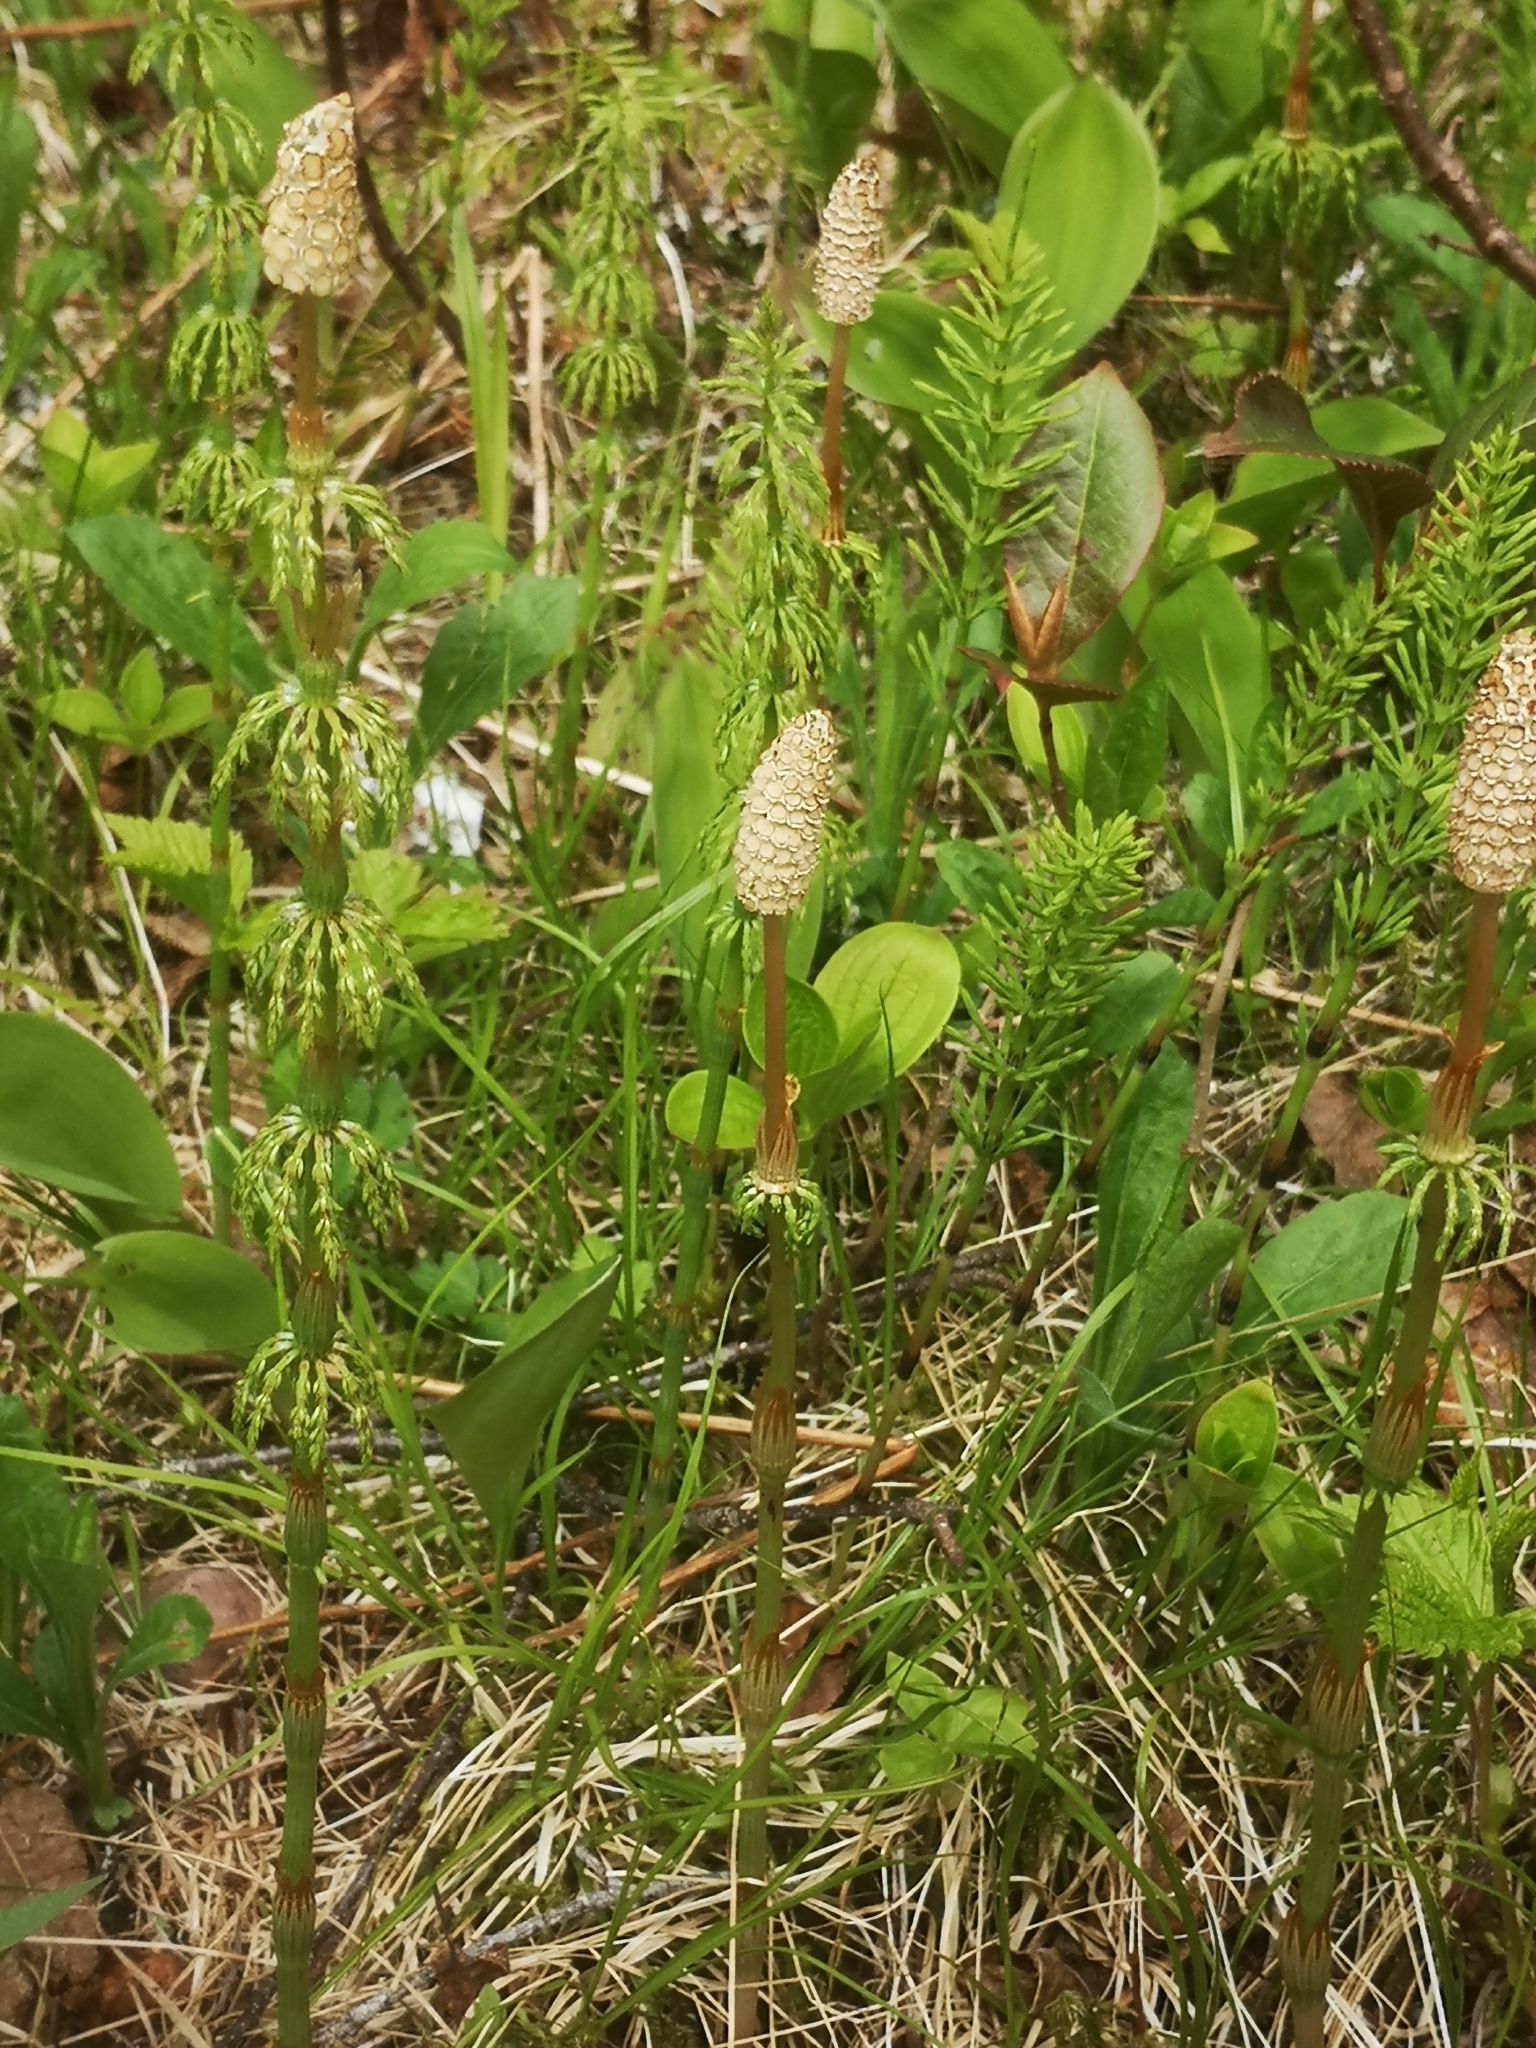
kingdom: Plantae
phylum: Tracheophyta
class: Polypodiopsida
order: Equisetales
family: Equisetaceae
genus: Equisetum
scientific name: Equisetum sylvaticum
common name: Wood horsetail
